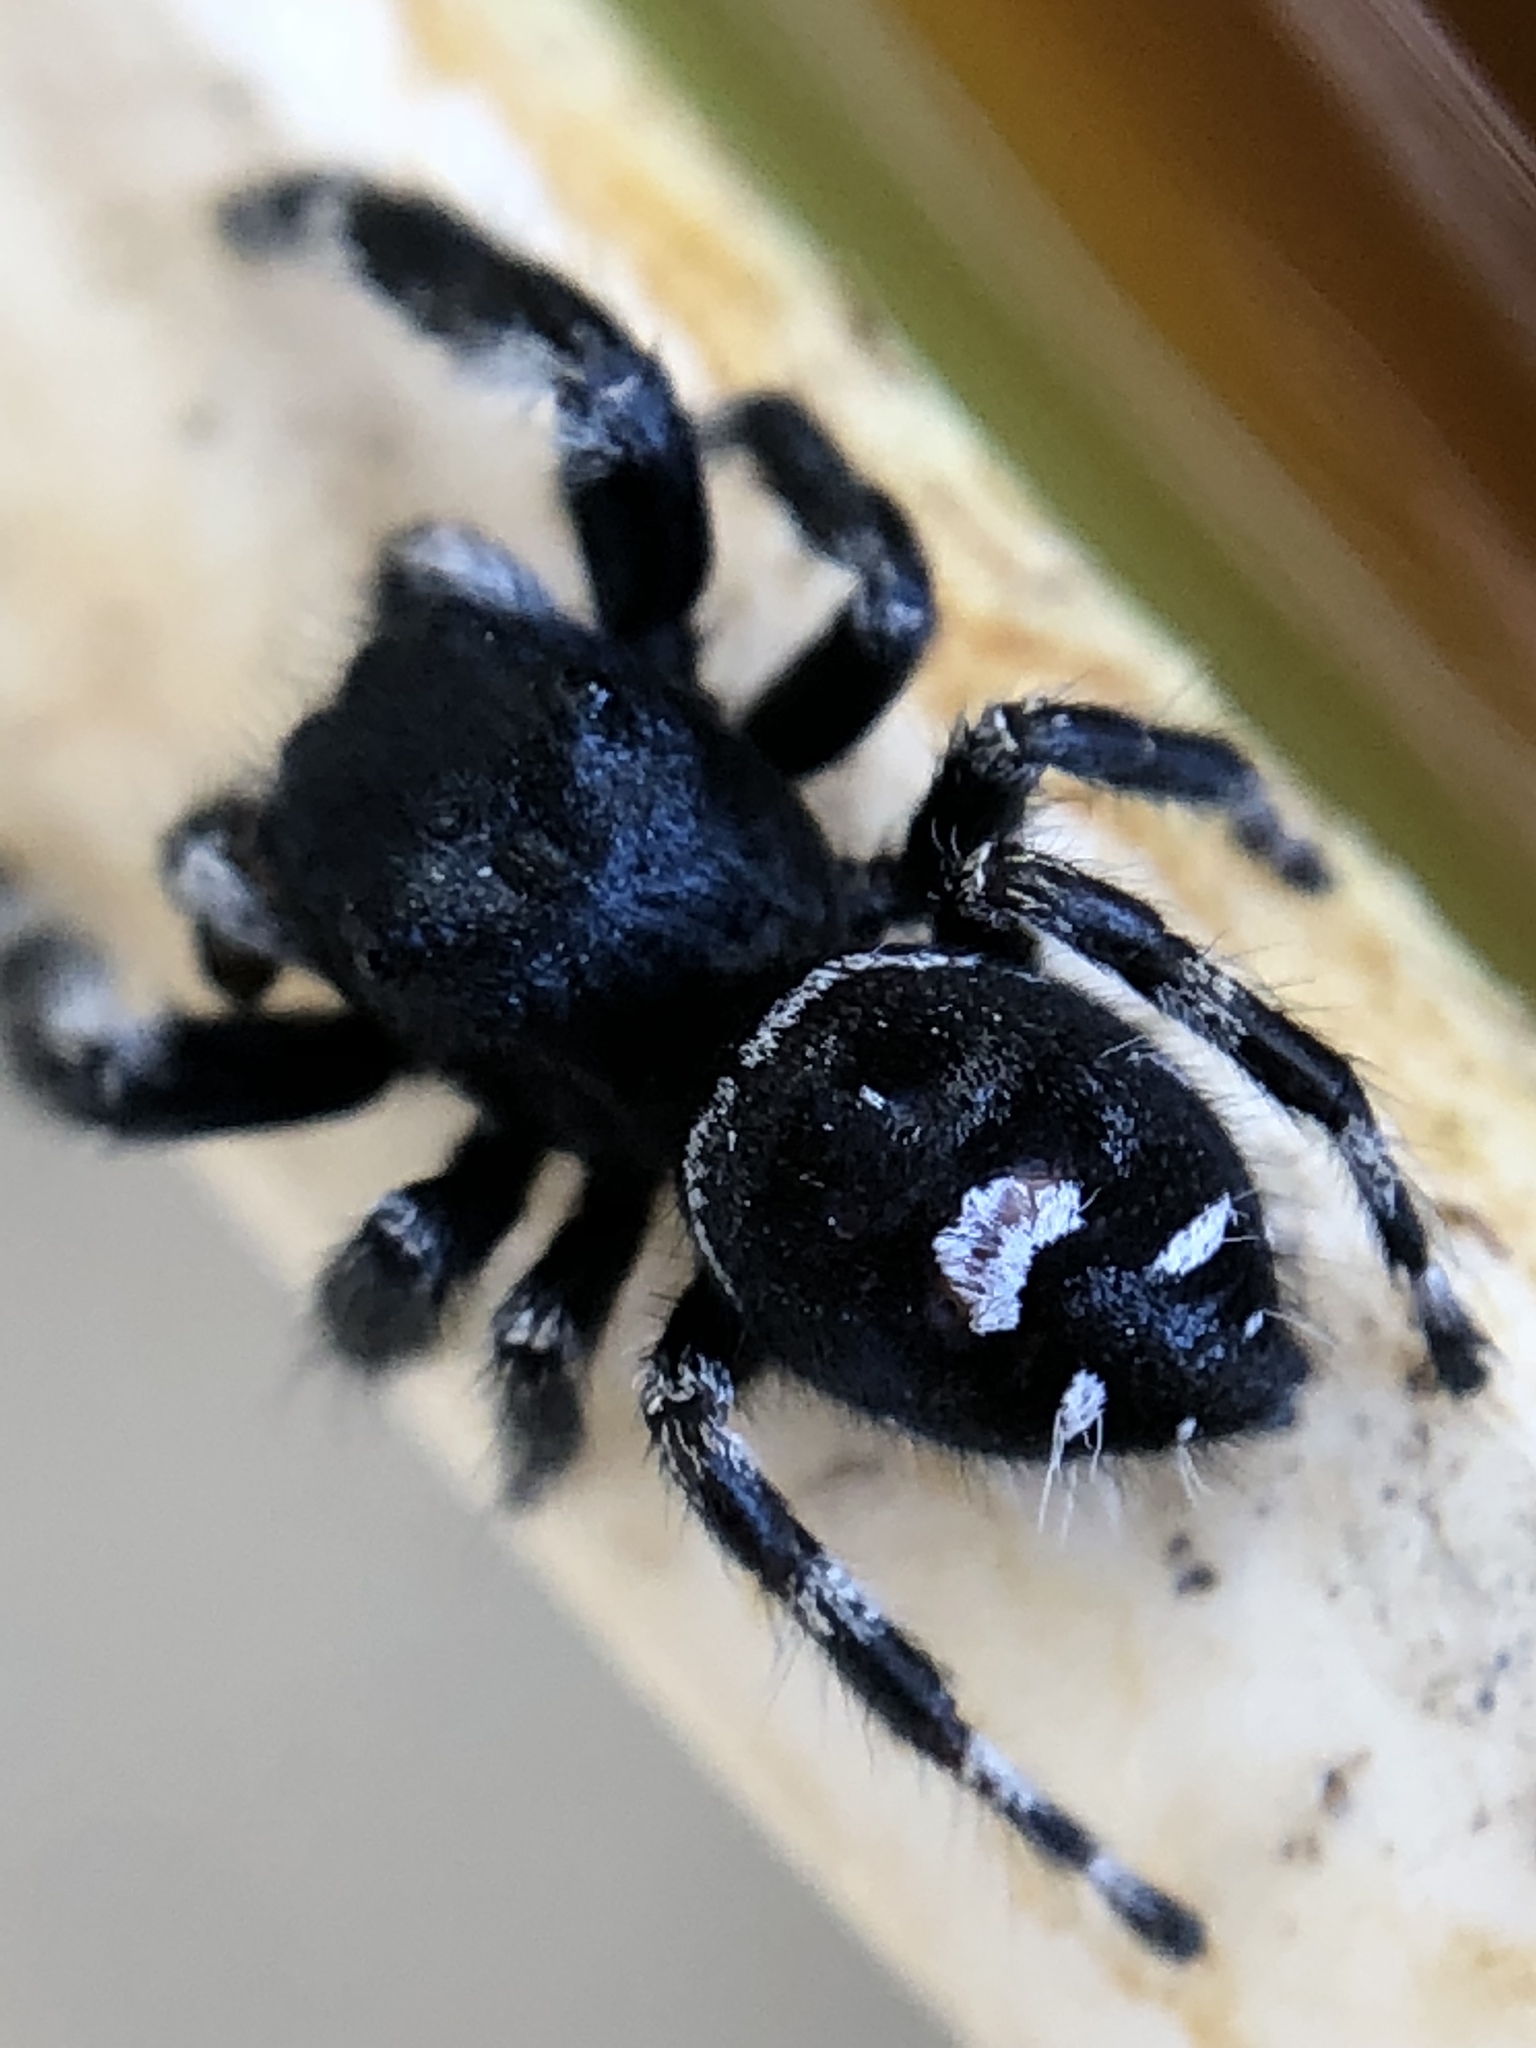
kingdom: Animalia
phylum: Arthropoda
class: Arachnida
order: Araneae
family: Salticidae
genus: Phidippus
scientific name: Phidippus audax
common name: Bold jumper
